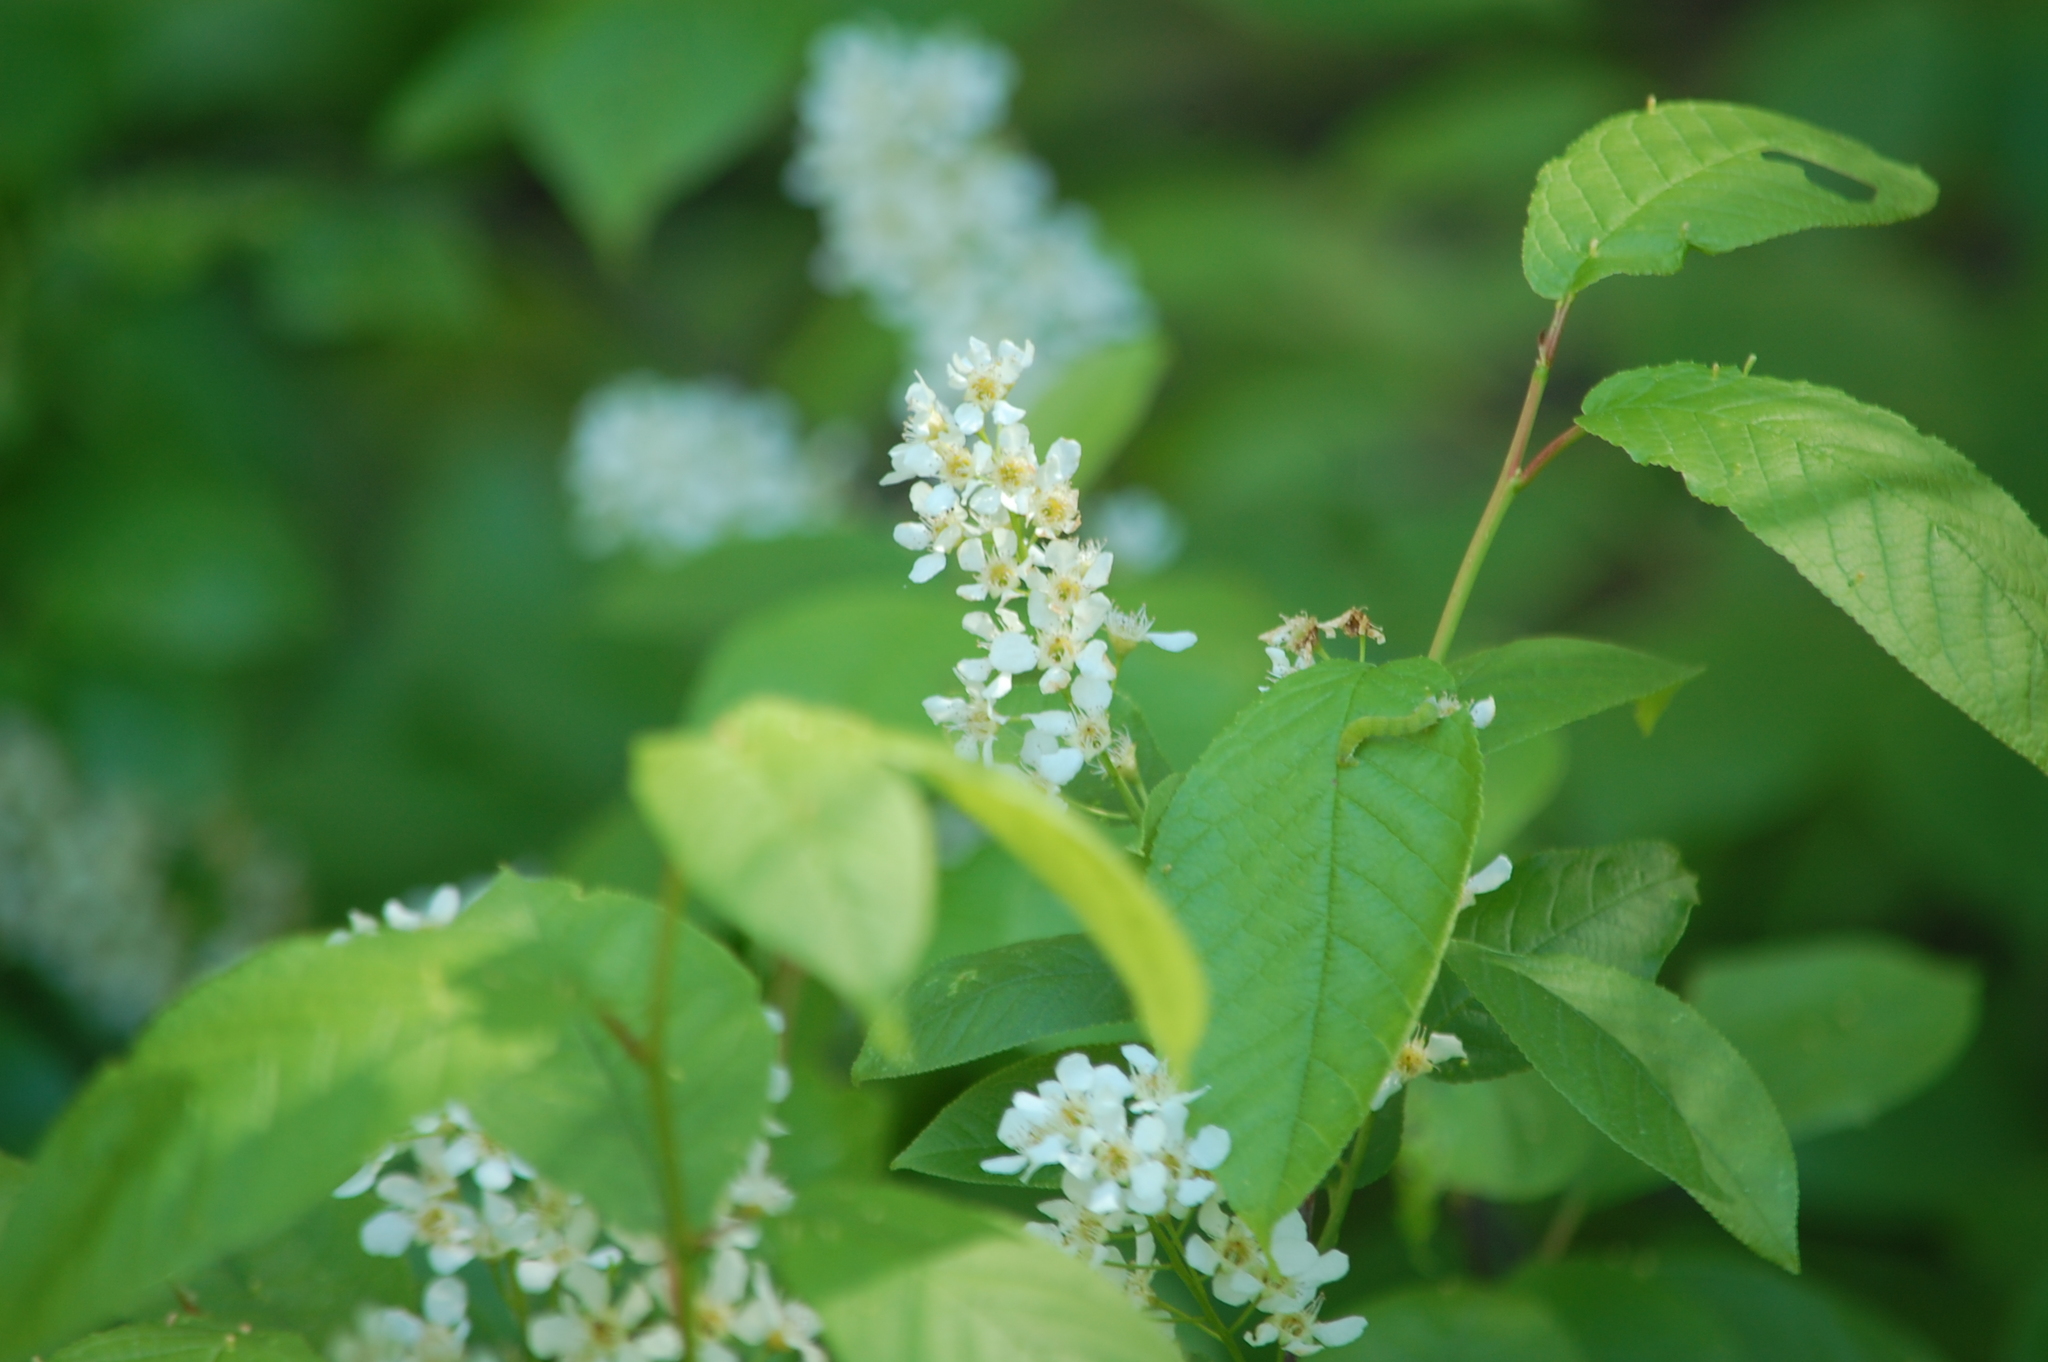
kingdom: Plantae
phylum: Tracheophyta
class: Magnoliopsida
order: Rosales
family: Rosaceae
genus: Prunus
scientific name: Prunus padus
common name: Bird cherry
